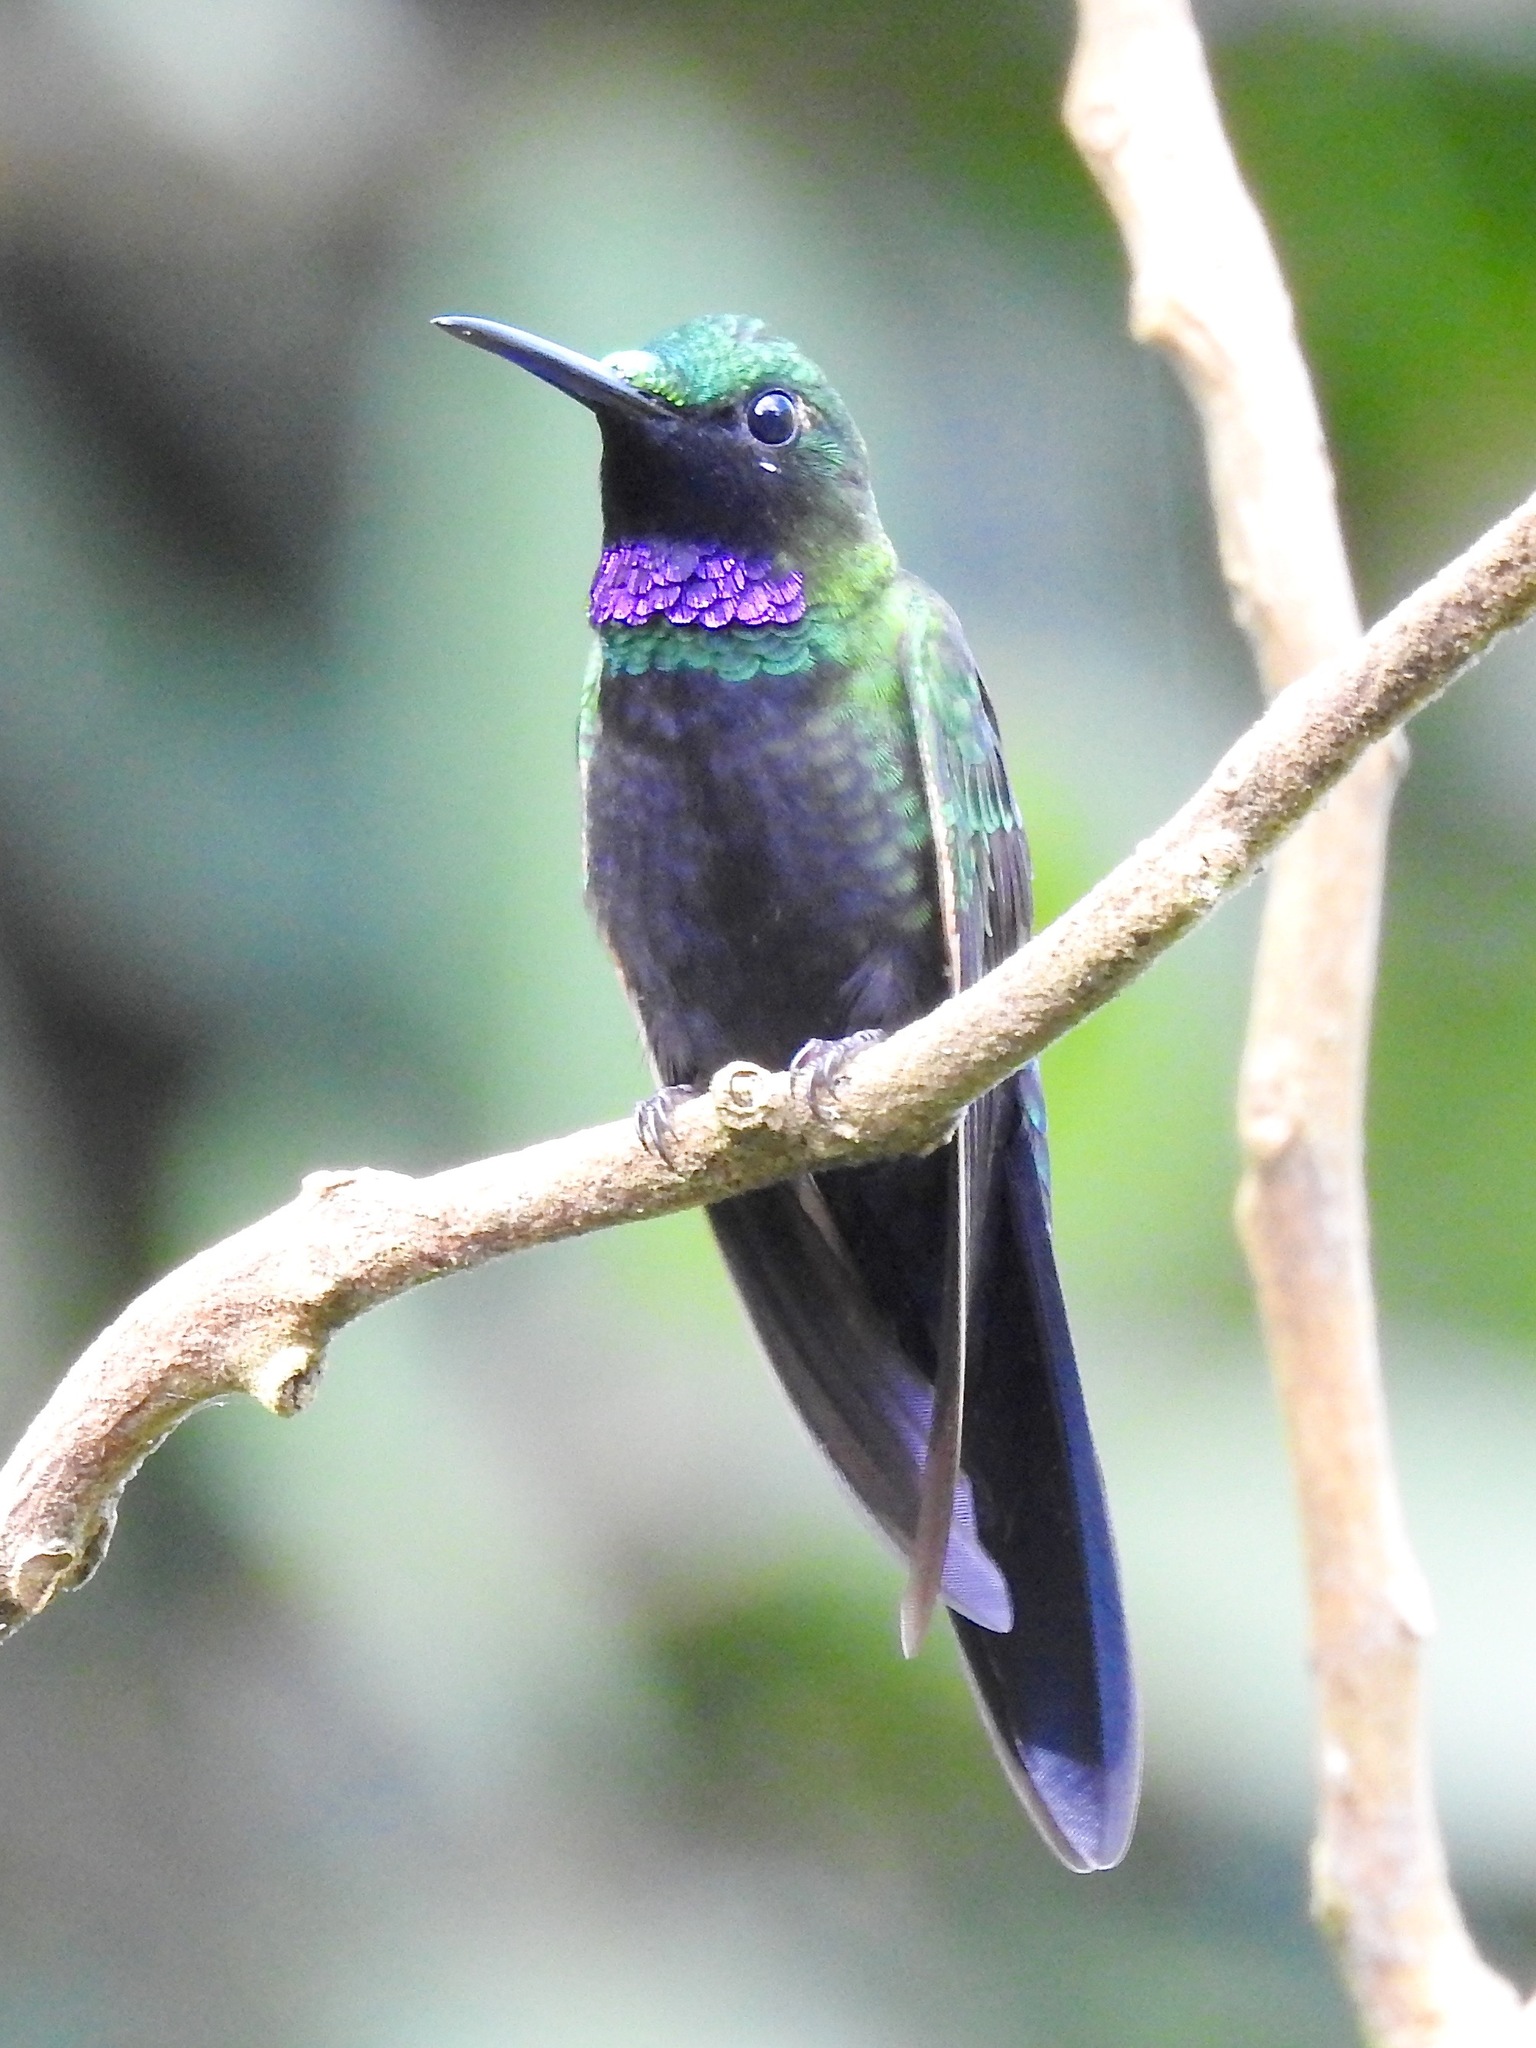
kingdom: Animalia
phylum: Chordata
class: Aves
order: Apodiformes
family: Trochilidae
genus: Heliodoxa
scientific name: Heliodoxa schreibersii
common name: Black-throated brilliant
